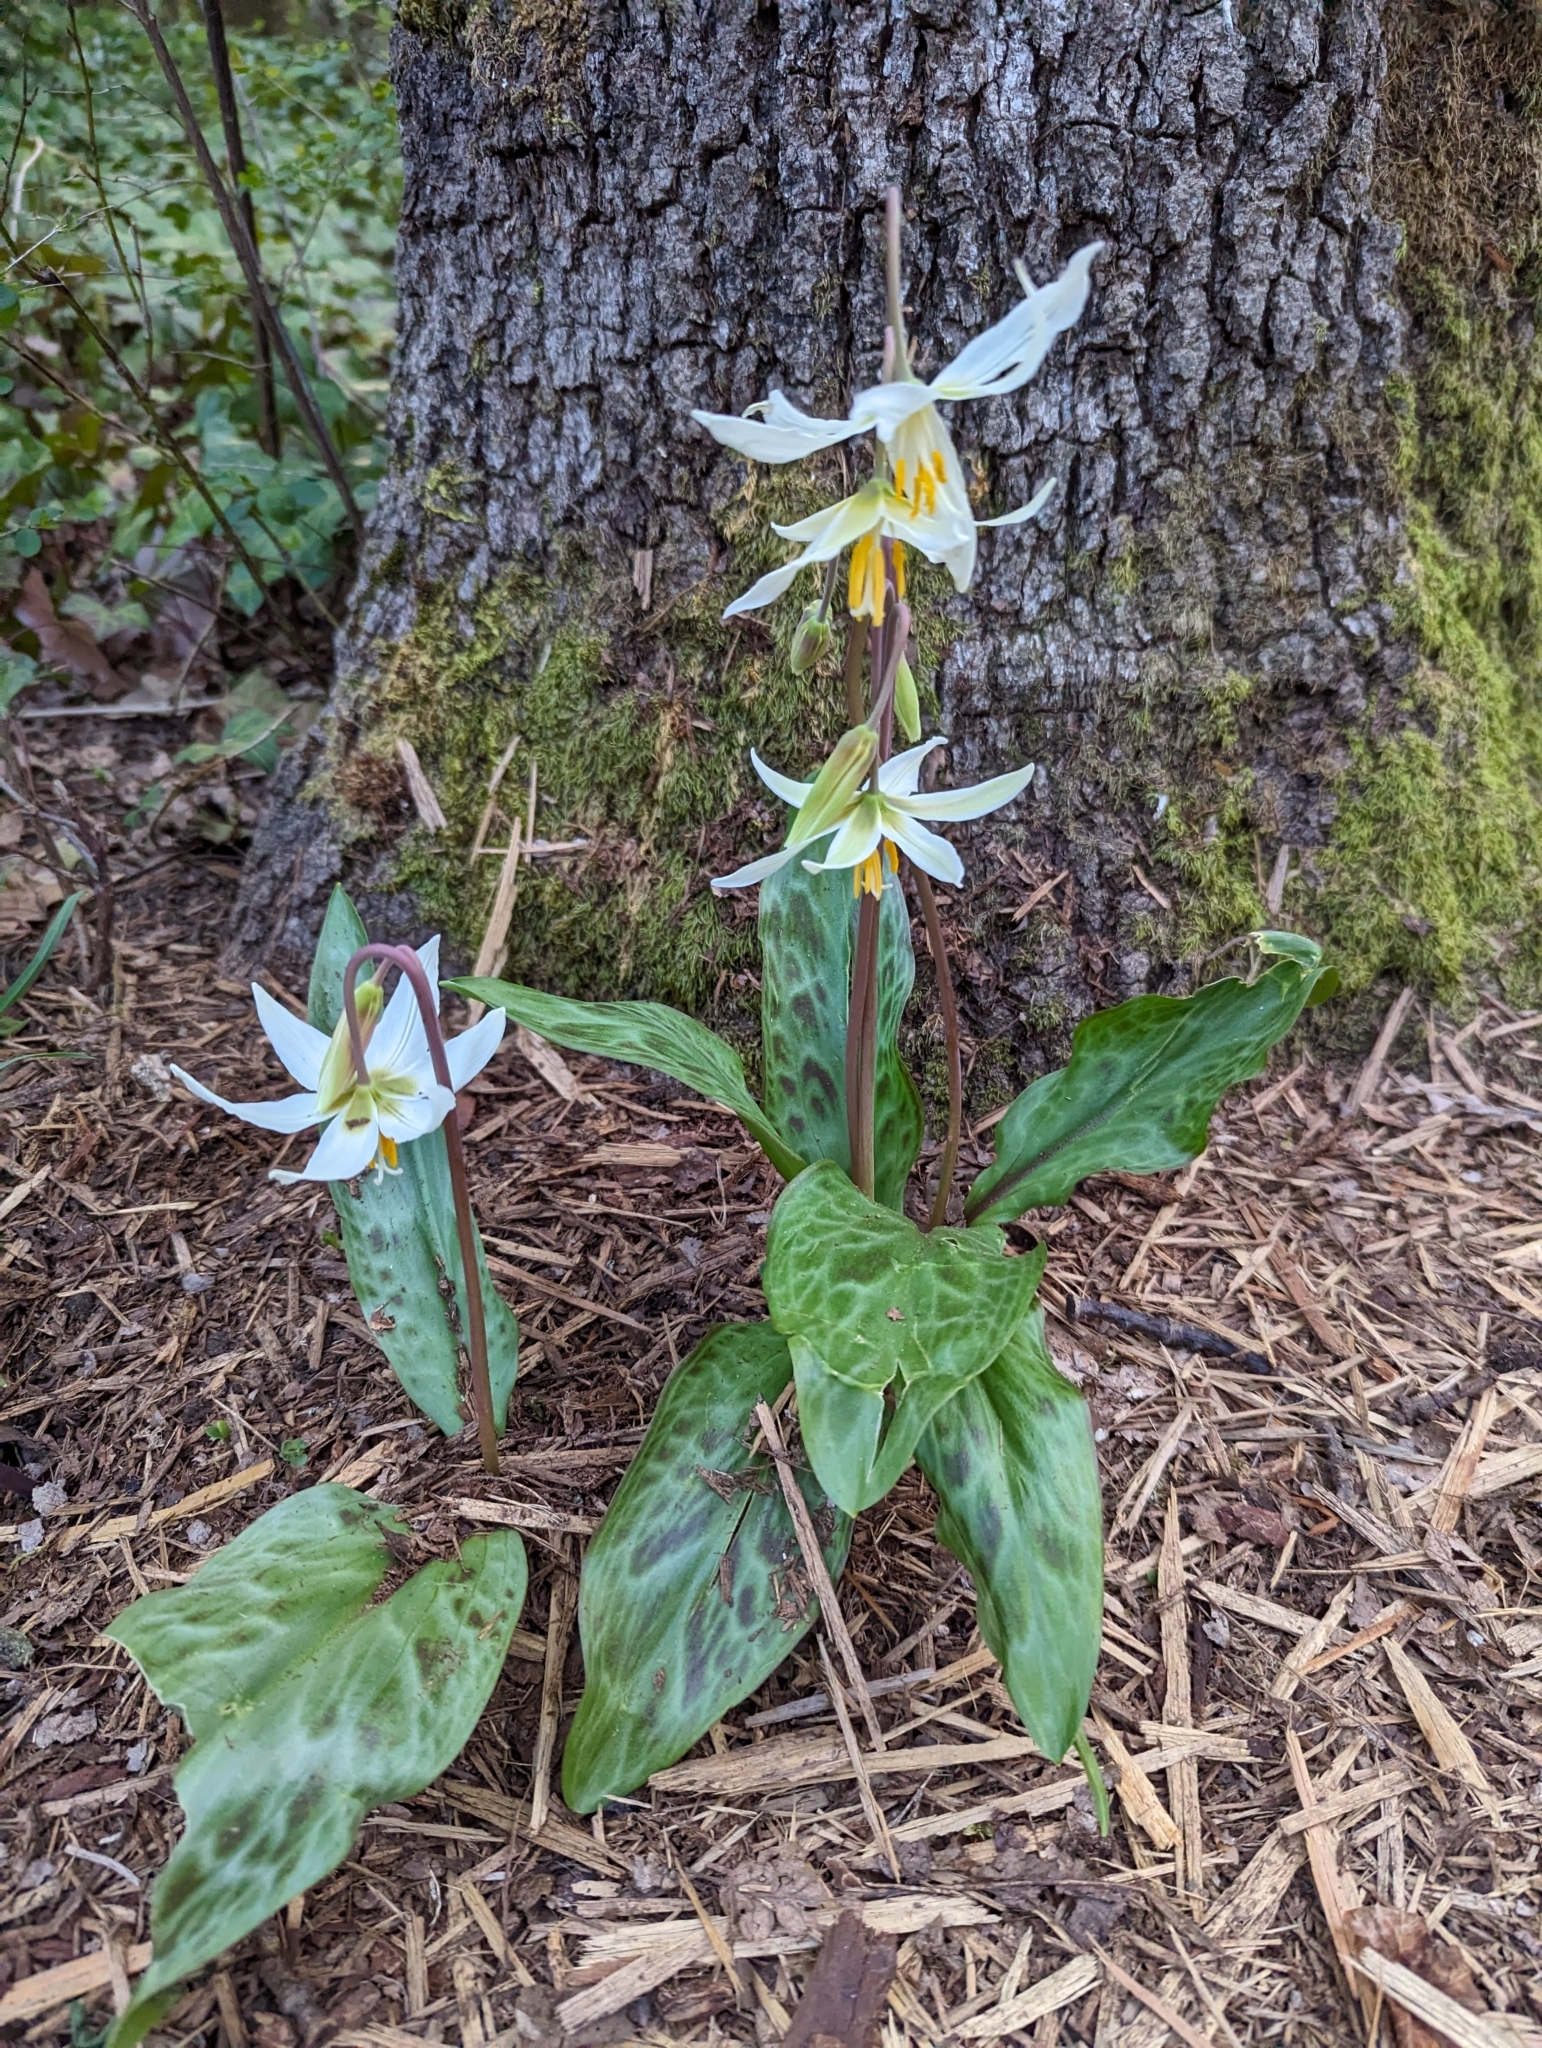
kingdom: Plantae
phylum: Tracheophyta
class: Liliopsida
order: Liliales
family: Liliaceae
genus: Erythronium
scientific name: Erythronium oregonum
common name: Giant adder's-tongue
